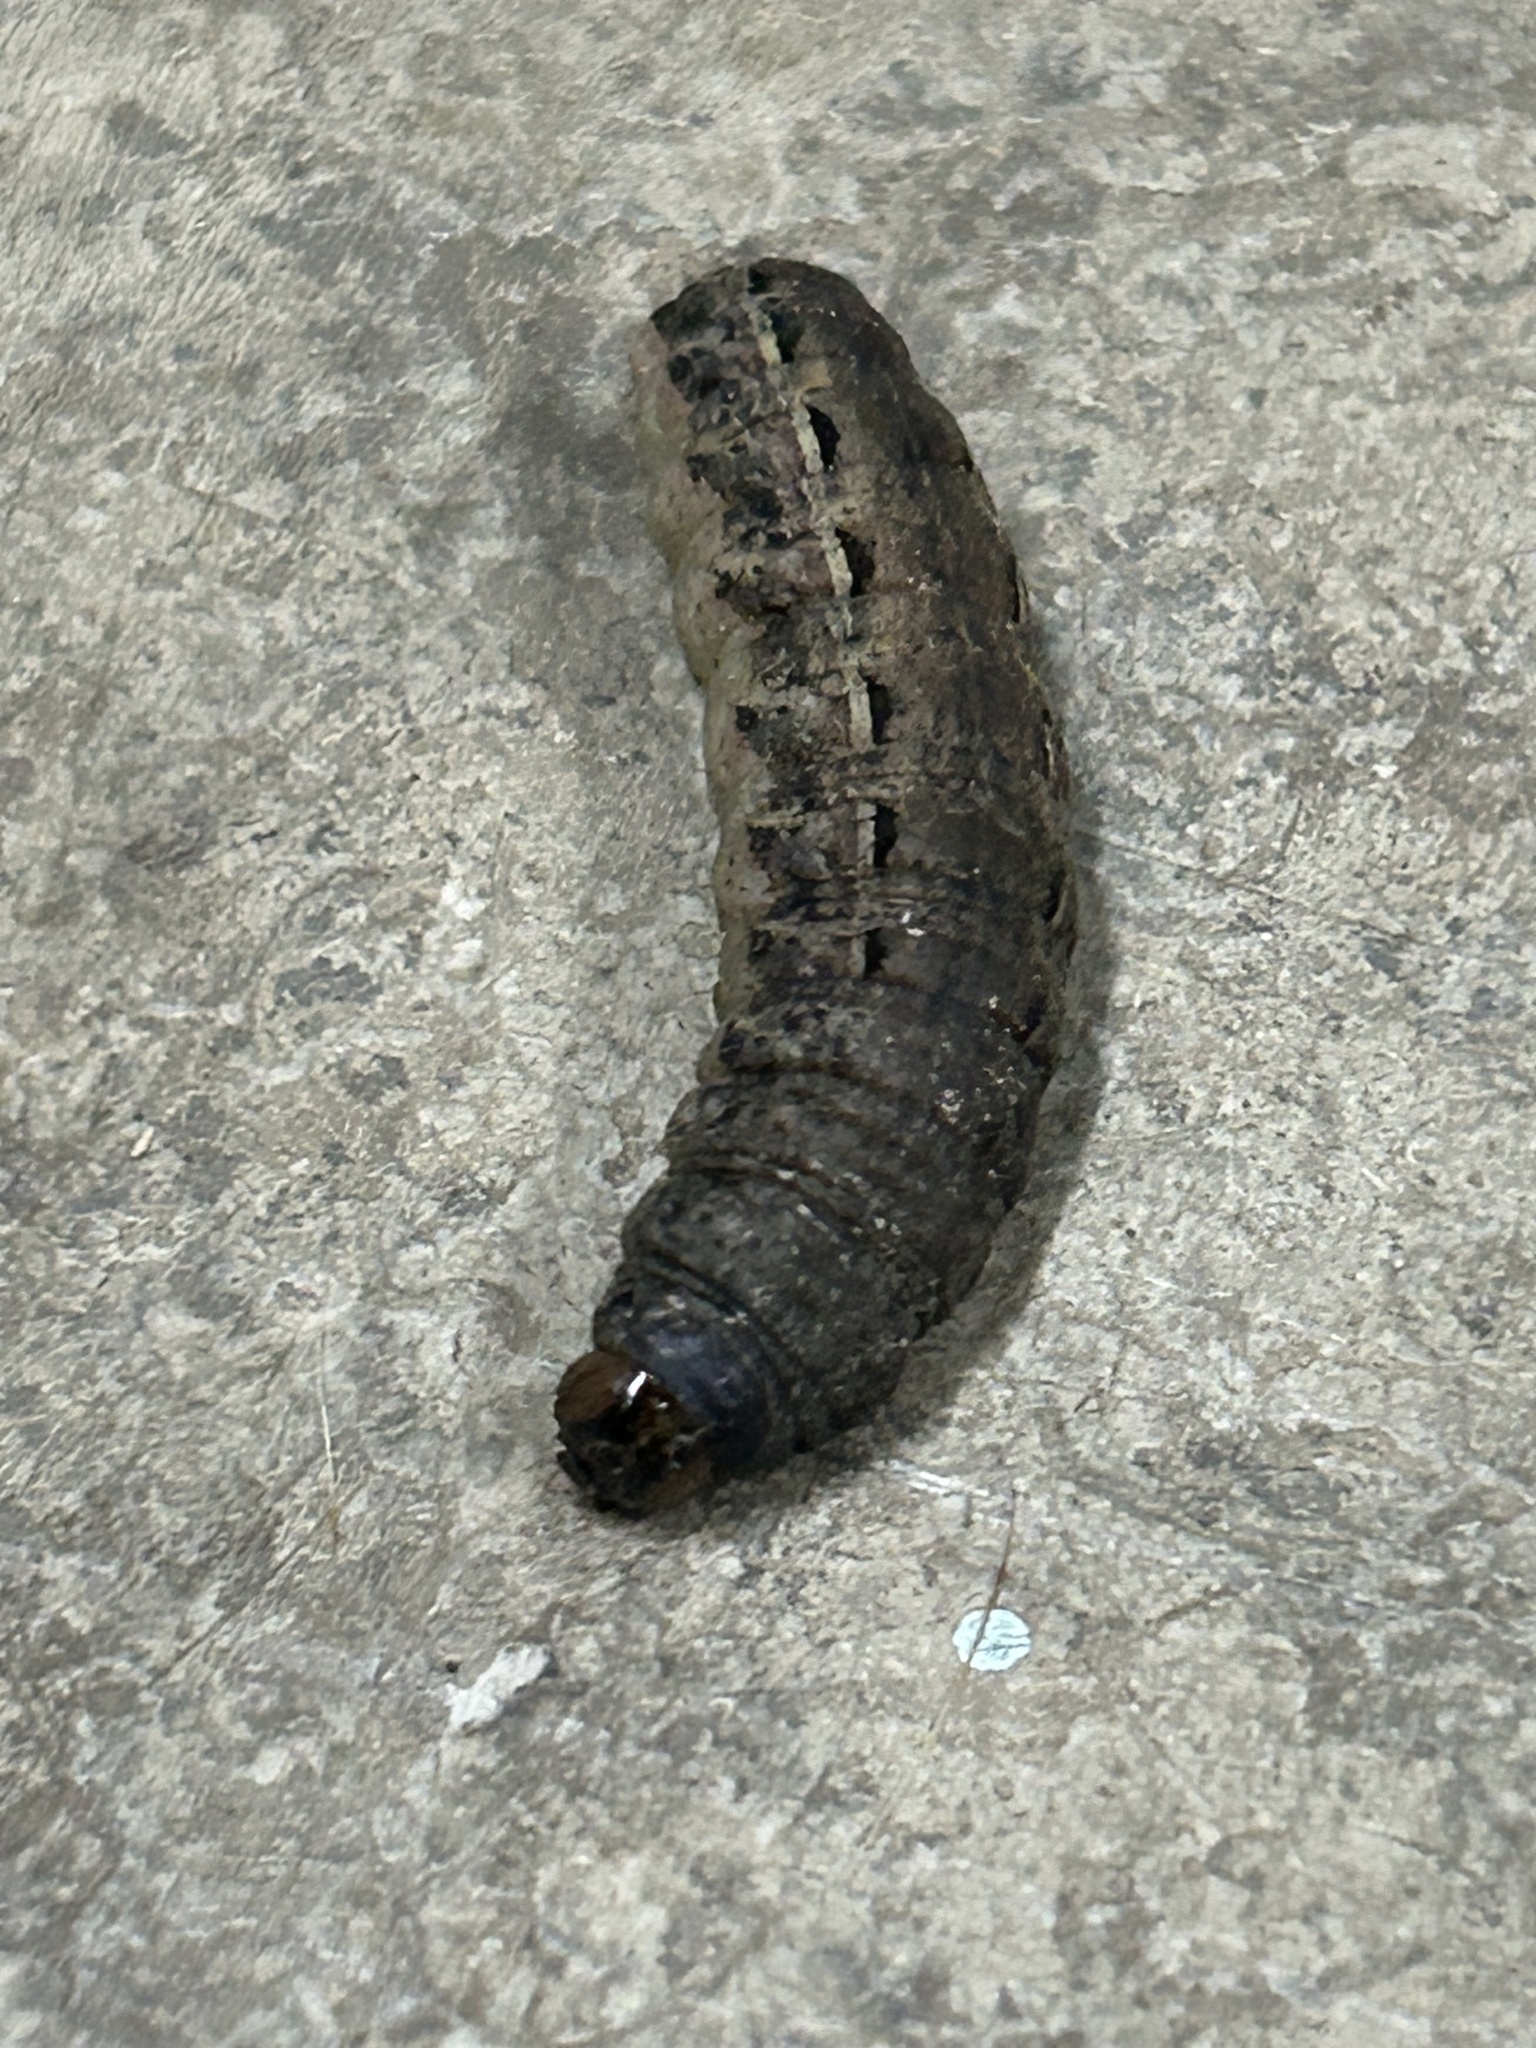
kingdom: Animalia
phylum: Arthropoda
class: Insecta
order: Lepidoptera
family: Noctuidae
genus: Noctua
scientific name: Noctua pronuba
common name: Large yellow underwing
